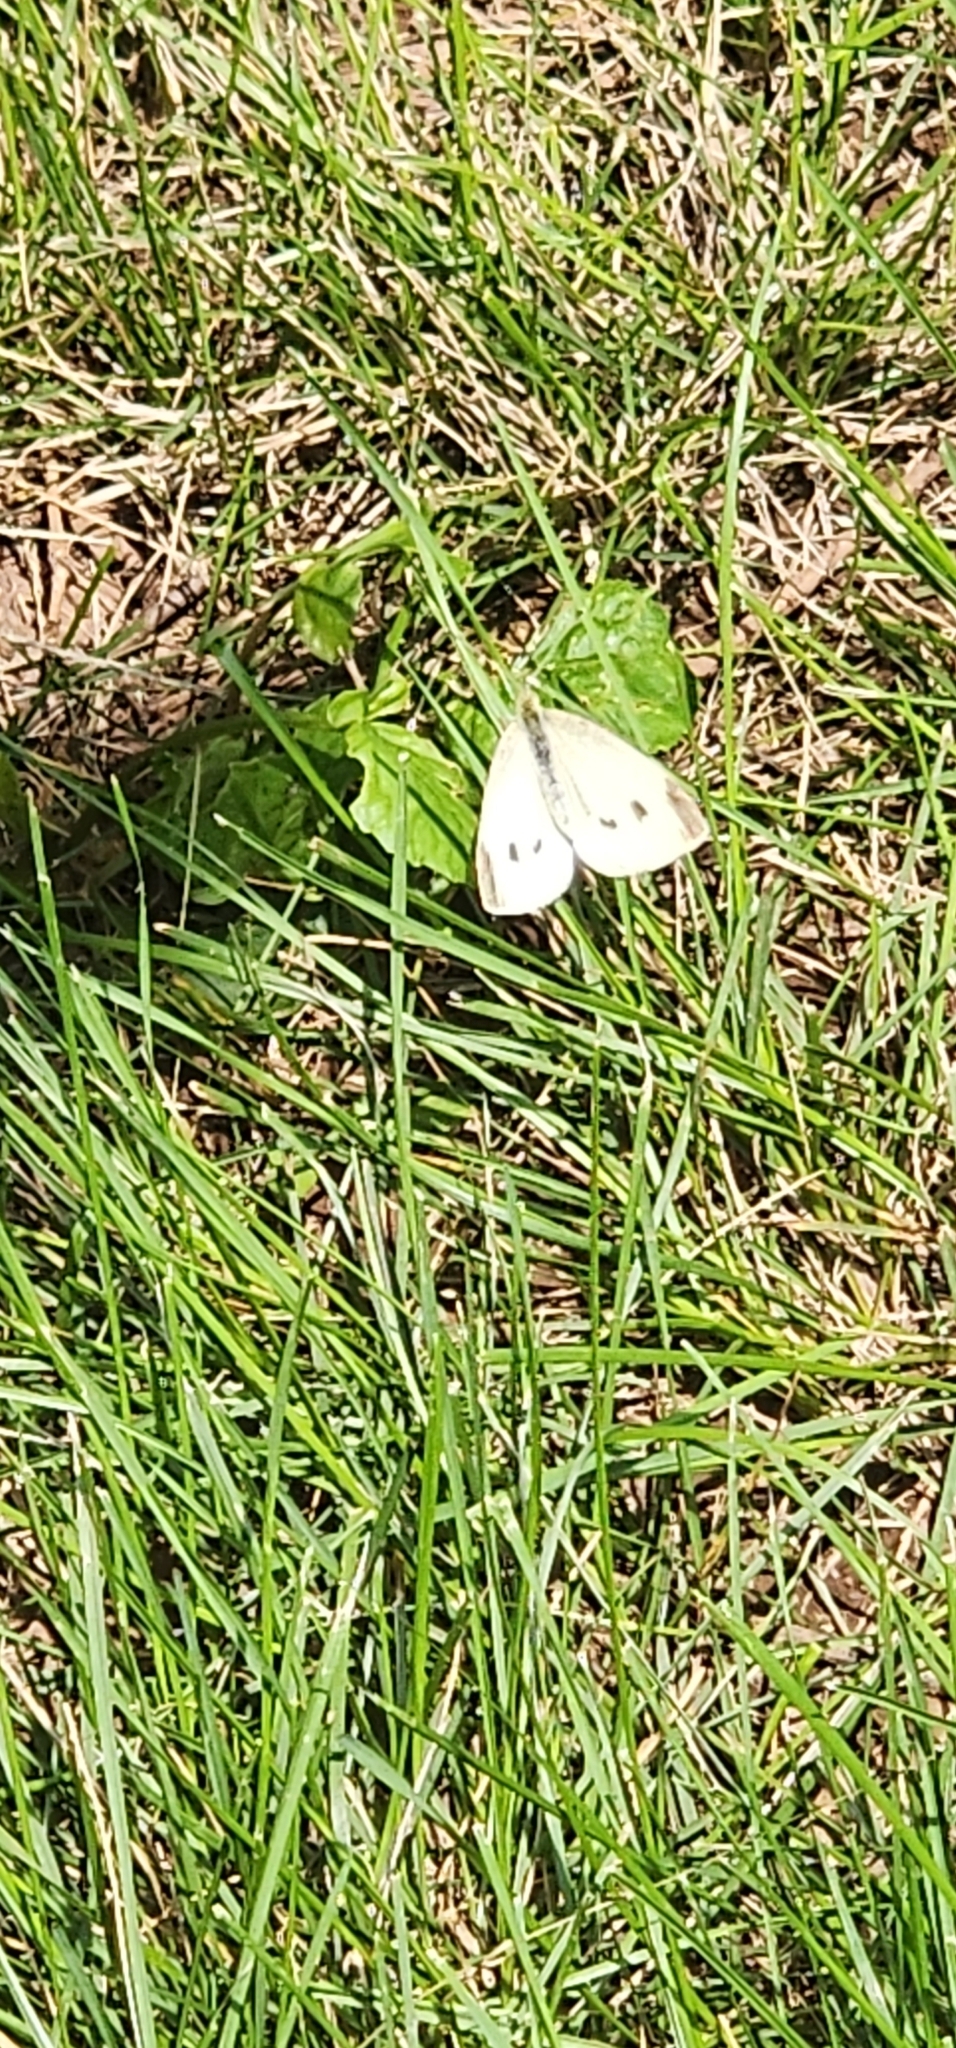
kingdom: Animalia
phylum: Arthropoda
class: Insecta
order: Lepidoptera
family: Pieridae
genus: Pieris
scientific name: Pieris rapae
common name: Small white
